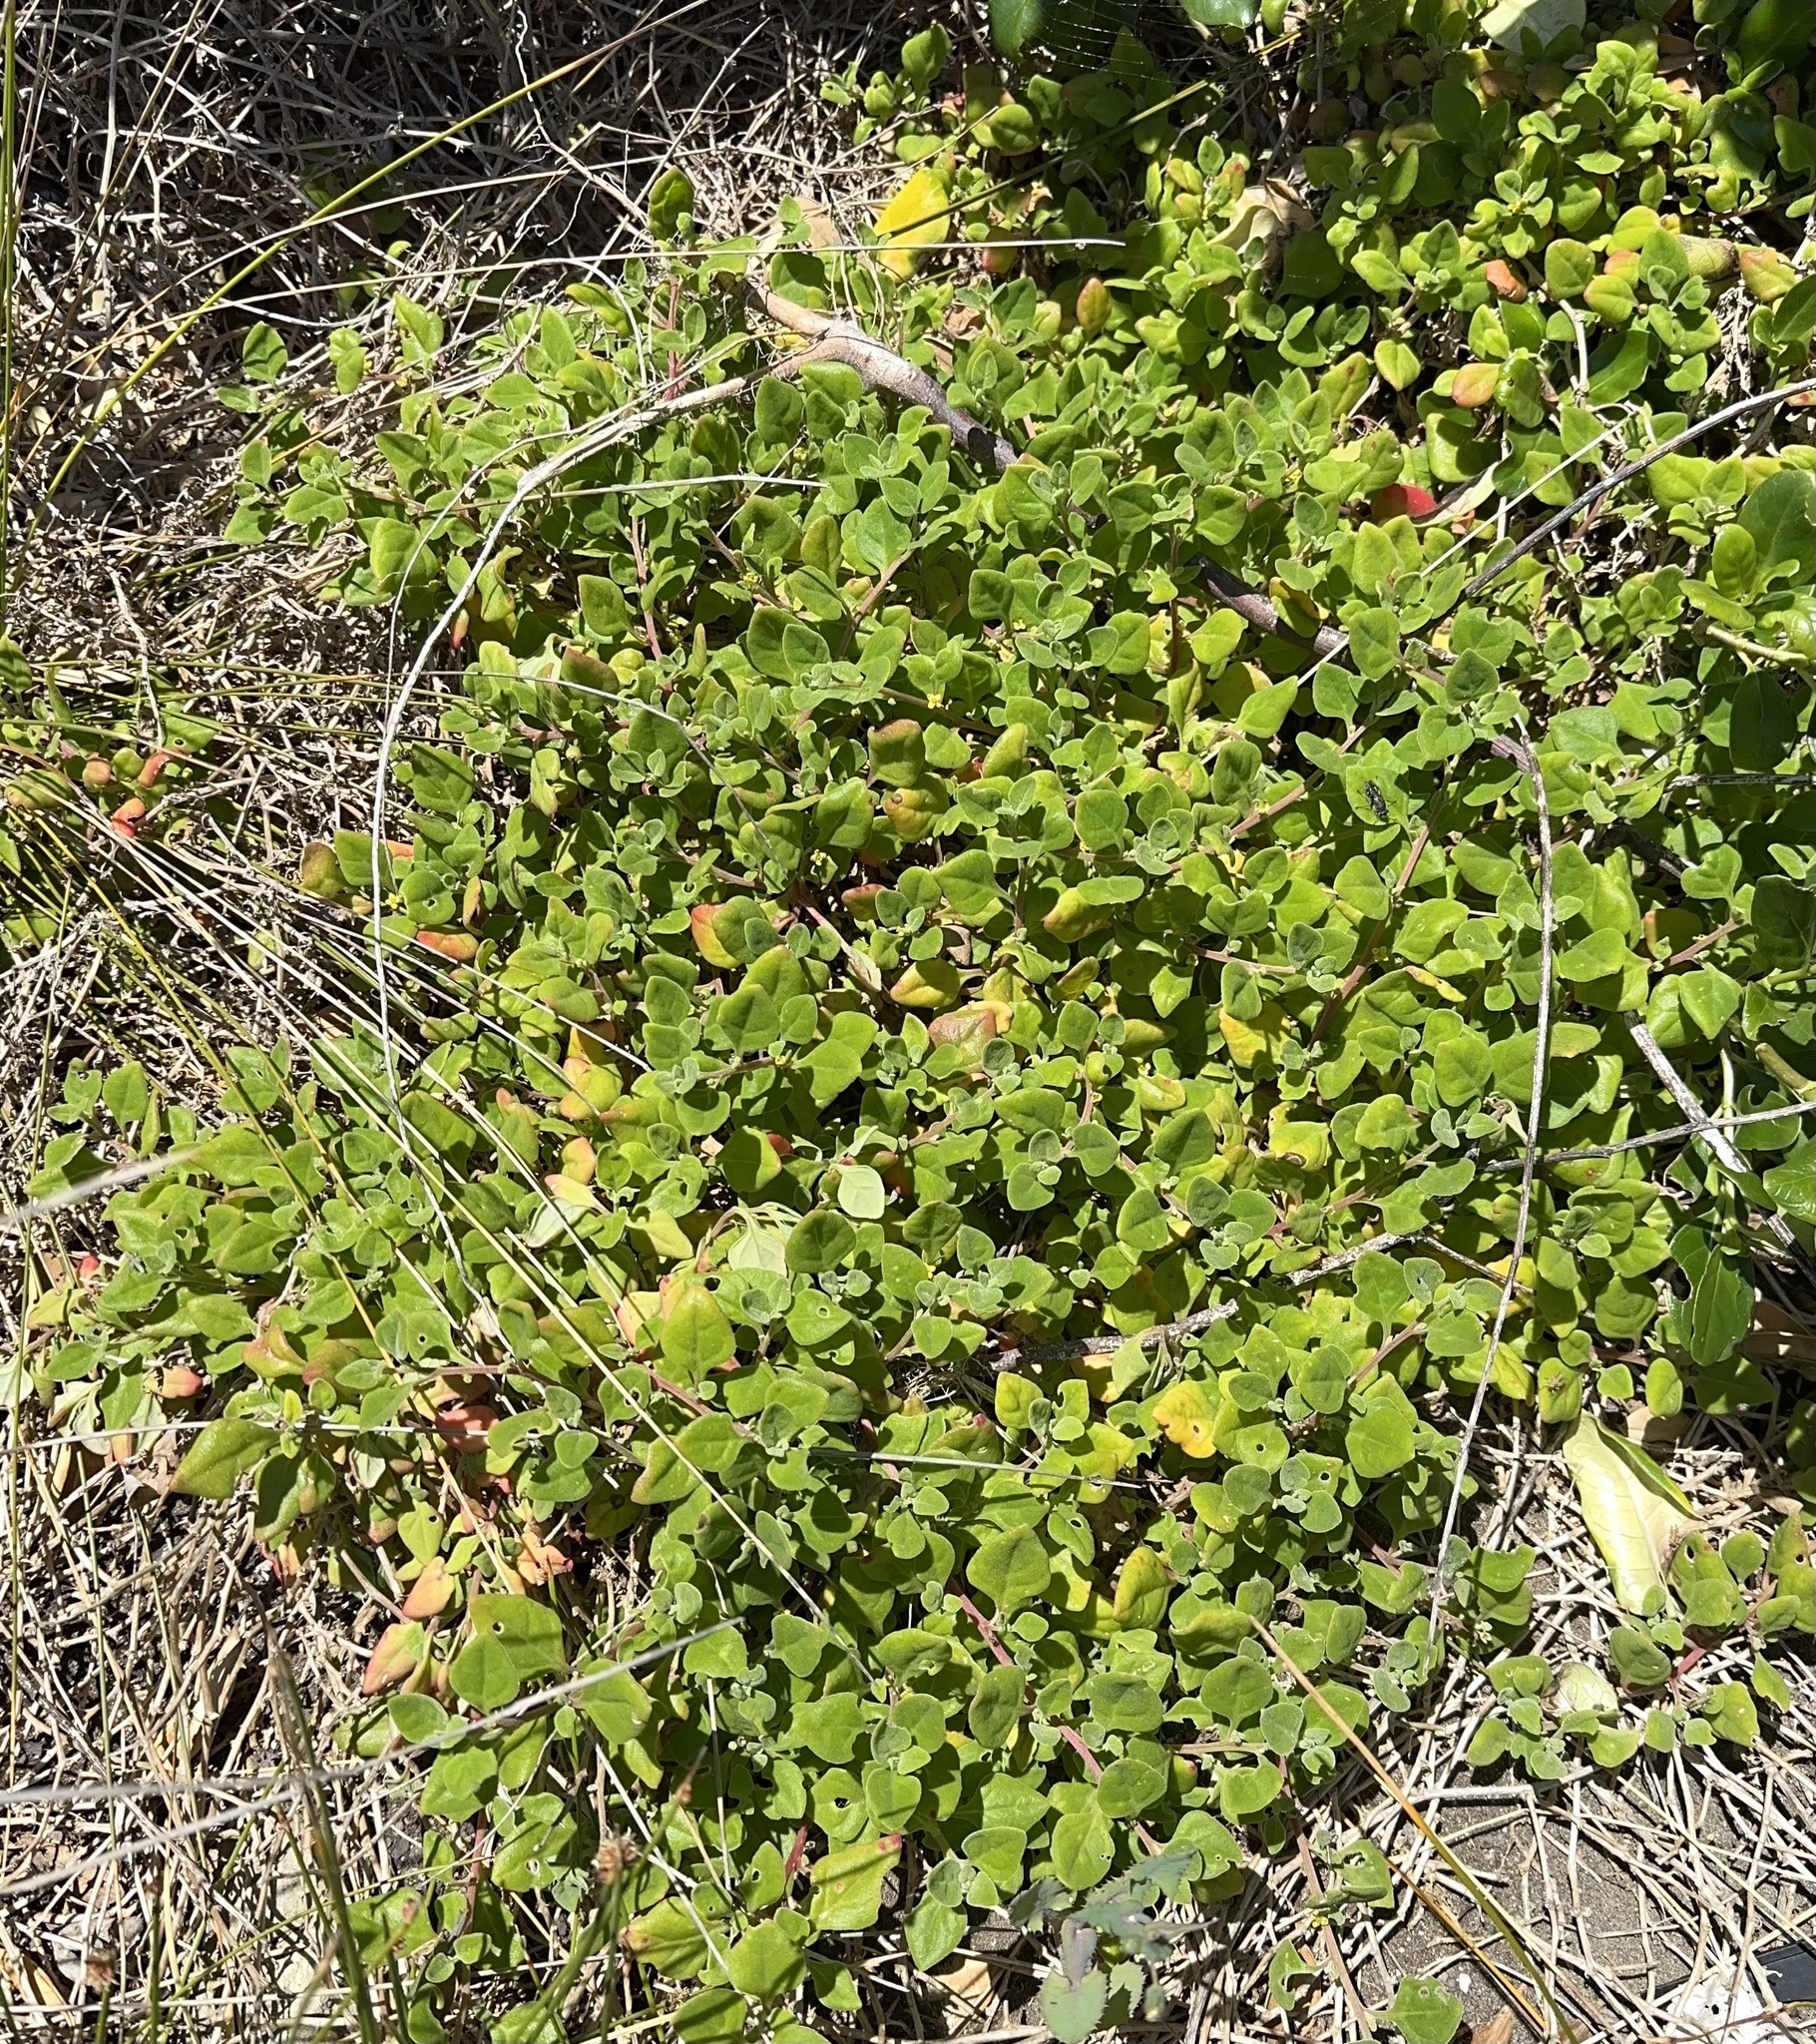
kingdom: Plantae
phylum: Tracheophyta
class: Magnoliopsida
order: Caryophyllales
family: Aizoaceae
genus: Tetragonia
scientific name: Tetragonia implexicoma
